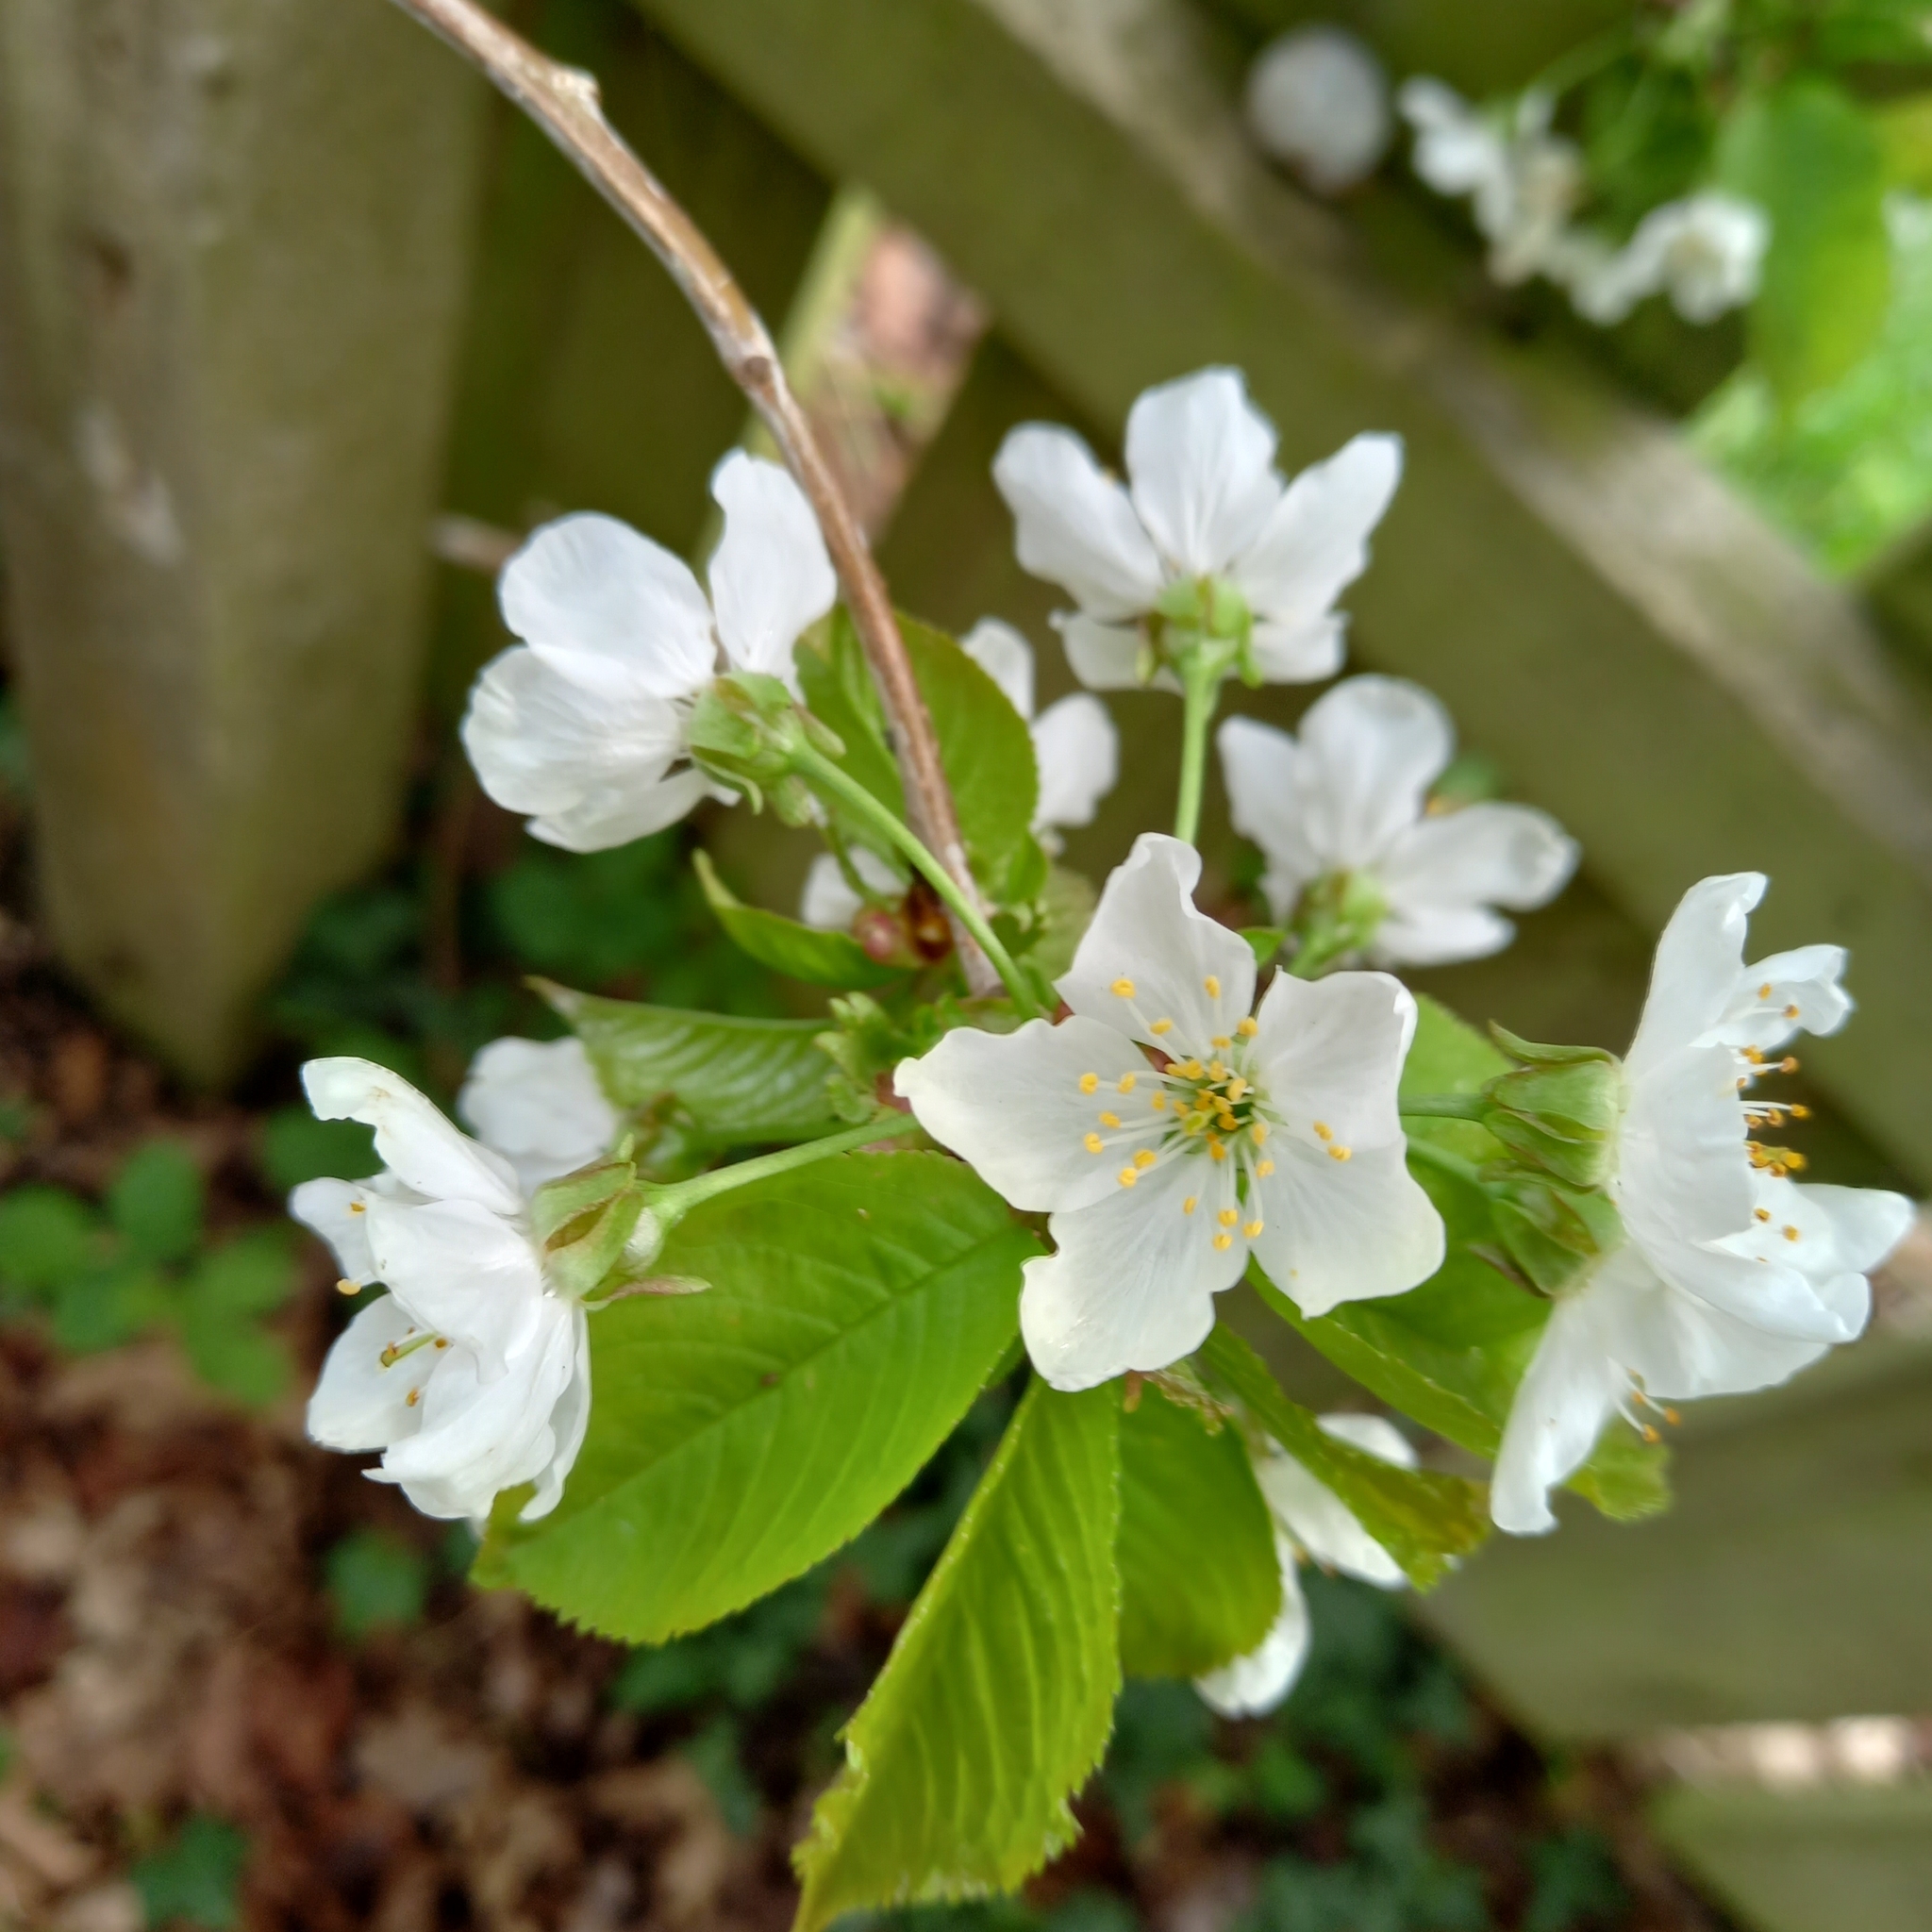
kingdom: Plantae
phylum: Tracheophyta
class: Magnoliopsida
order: Rosales
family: Rosaceae
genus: Prunus
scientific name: Prunus avium
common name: Sweet cherry
